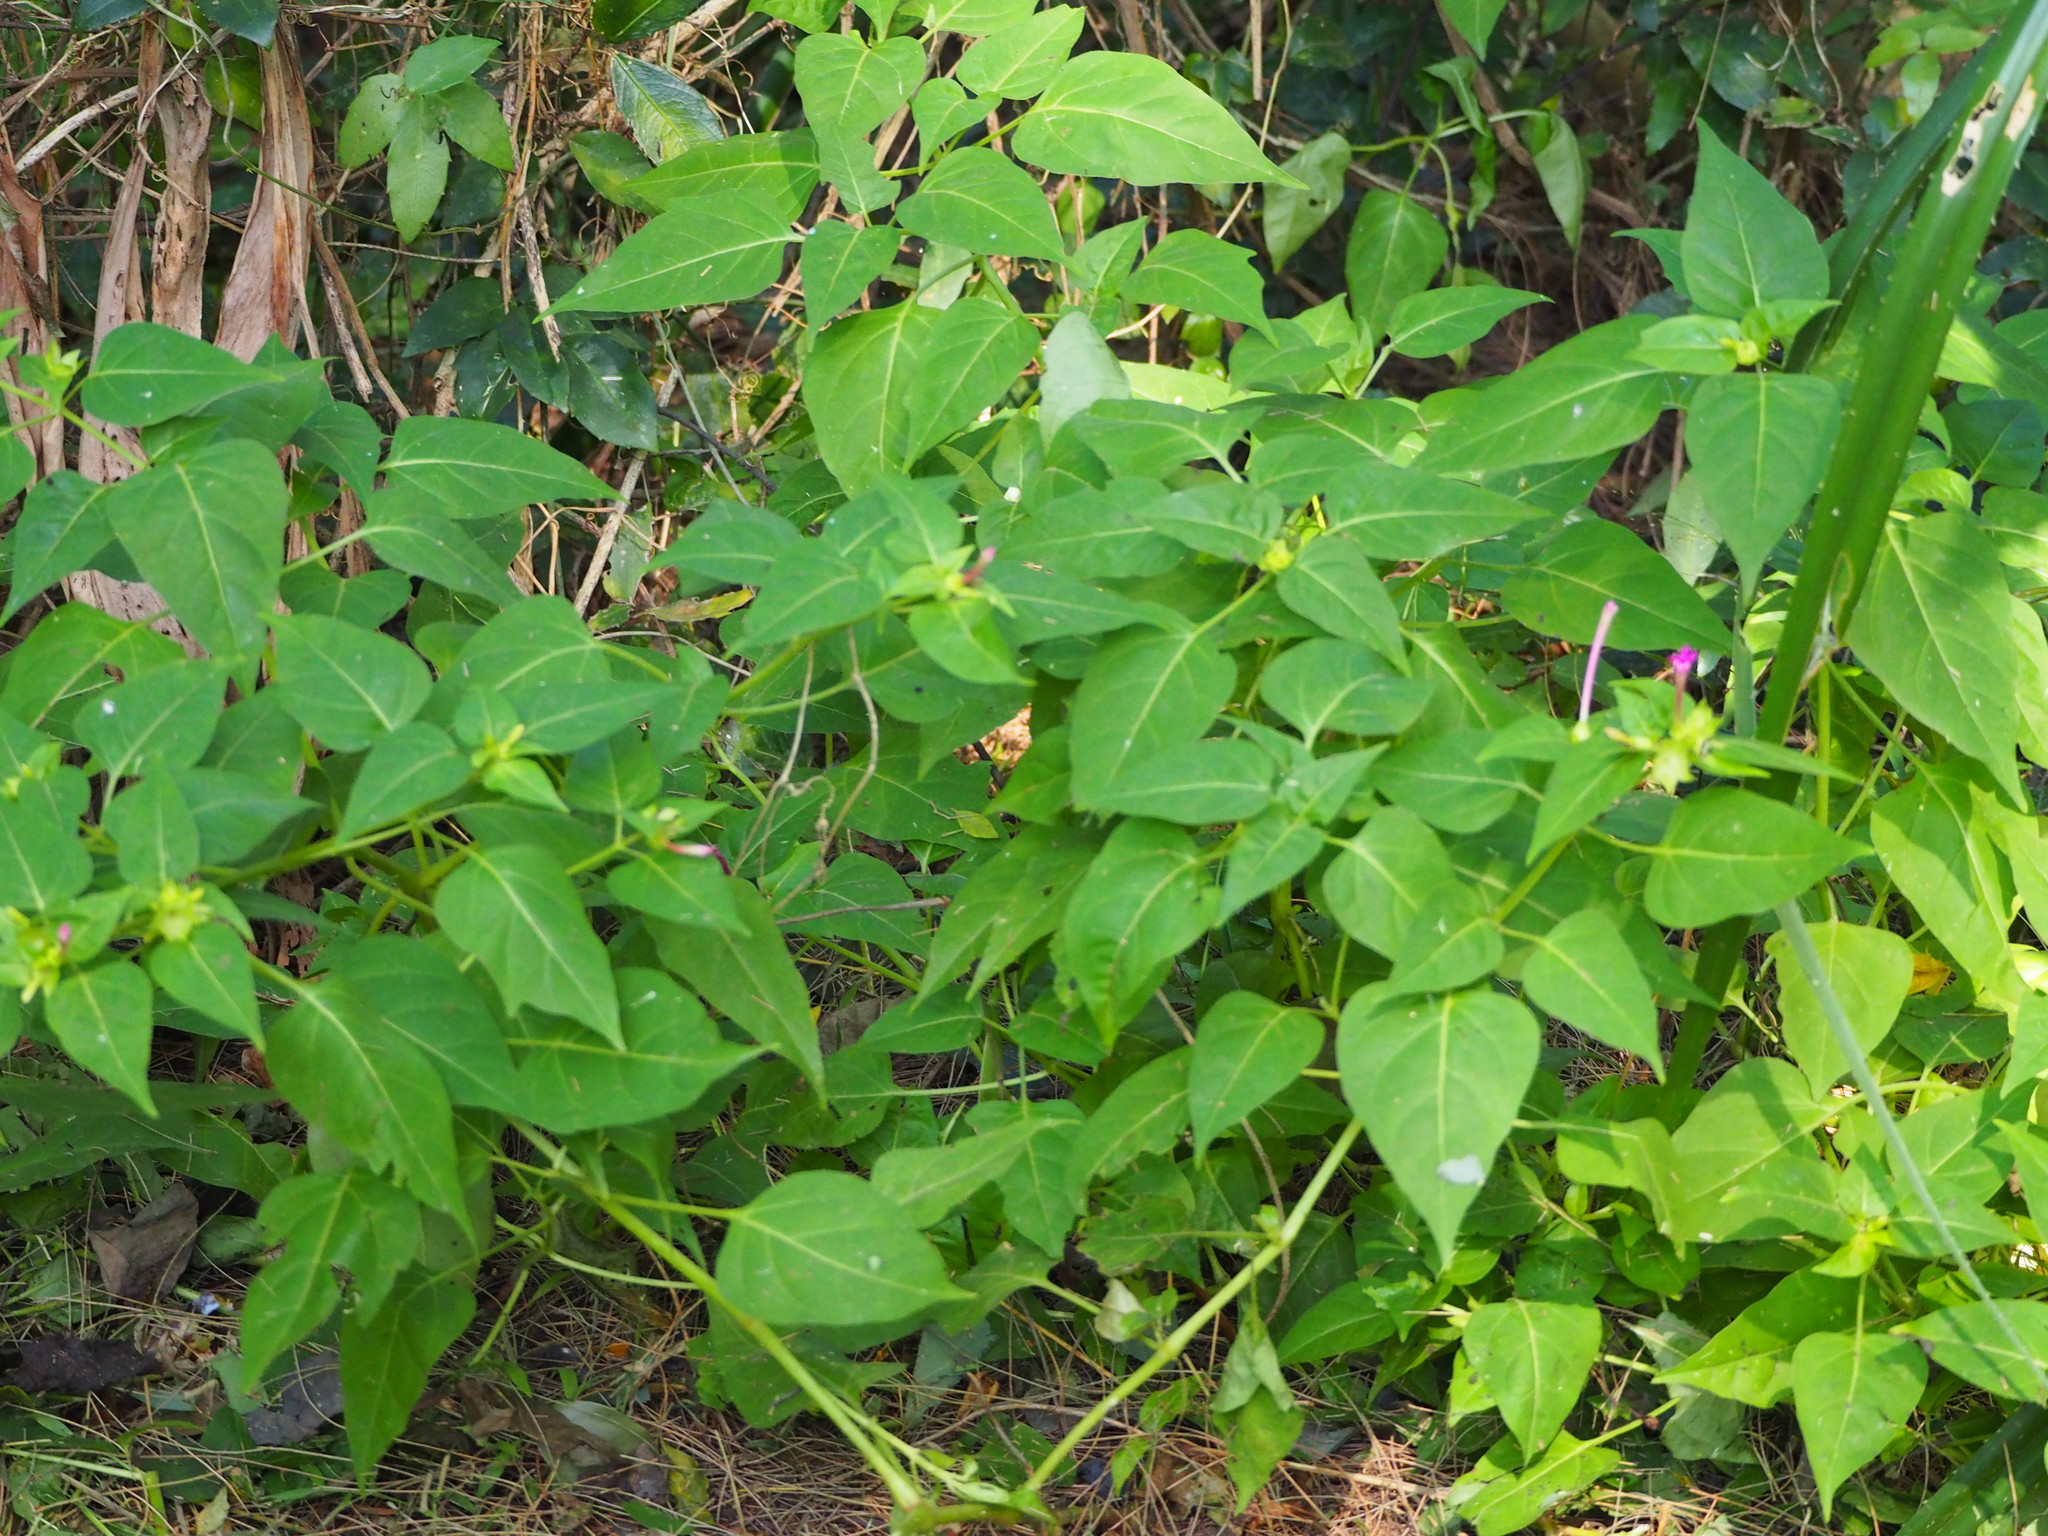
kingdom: Plantae
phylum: Tracheophyta
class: Magnoliopsida
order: Caryophyllales
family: Nyctaginaceae
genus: Mirabilis
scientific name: Mirabilis jalapa
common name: Marvel-of-peru
